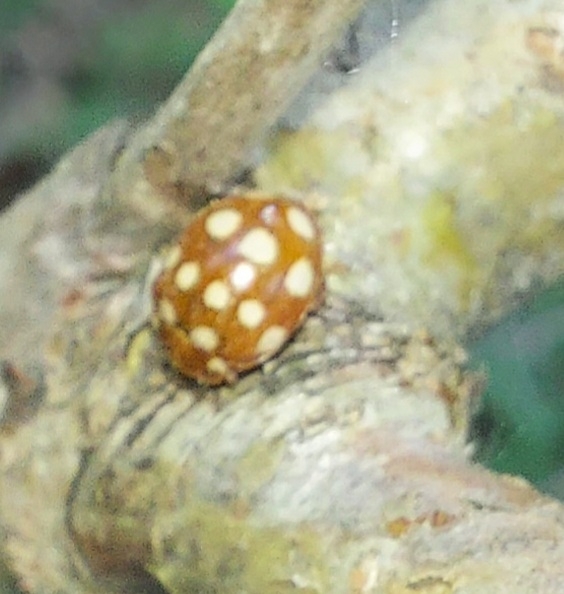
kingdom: Animalia
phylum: Arthropoda
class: Insecta
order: Coleoptera
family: Coccinellidae
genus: Calvia
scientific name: Calvia quatuordecimguttata
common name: Cream-spot ladybird
